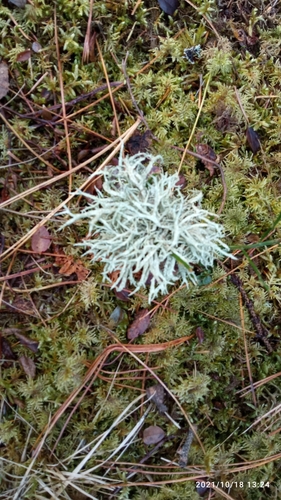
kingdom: Fungi
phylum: Ascomycota
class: Lecanoromycetes
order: Lecanorales
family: Parmeliaceae
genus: Evernia
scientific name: Evernia mesomorpha
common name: Boreal oak moss lichen
